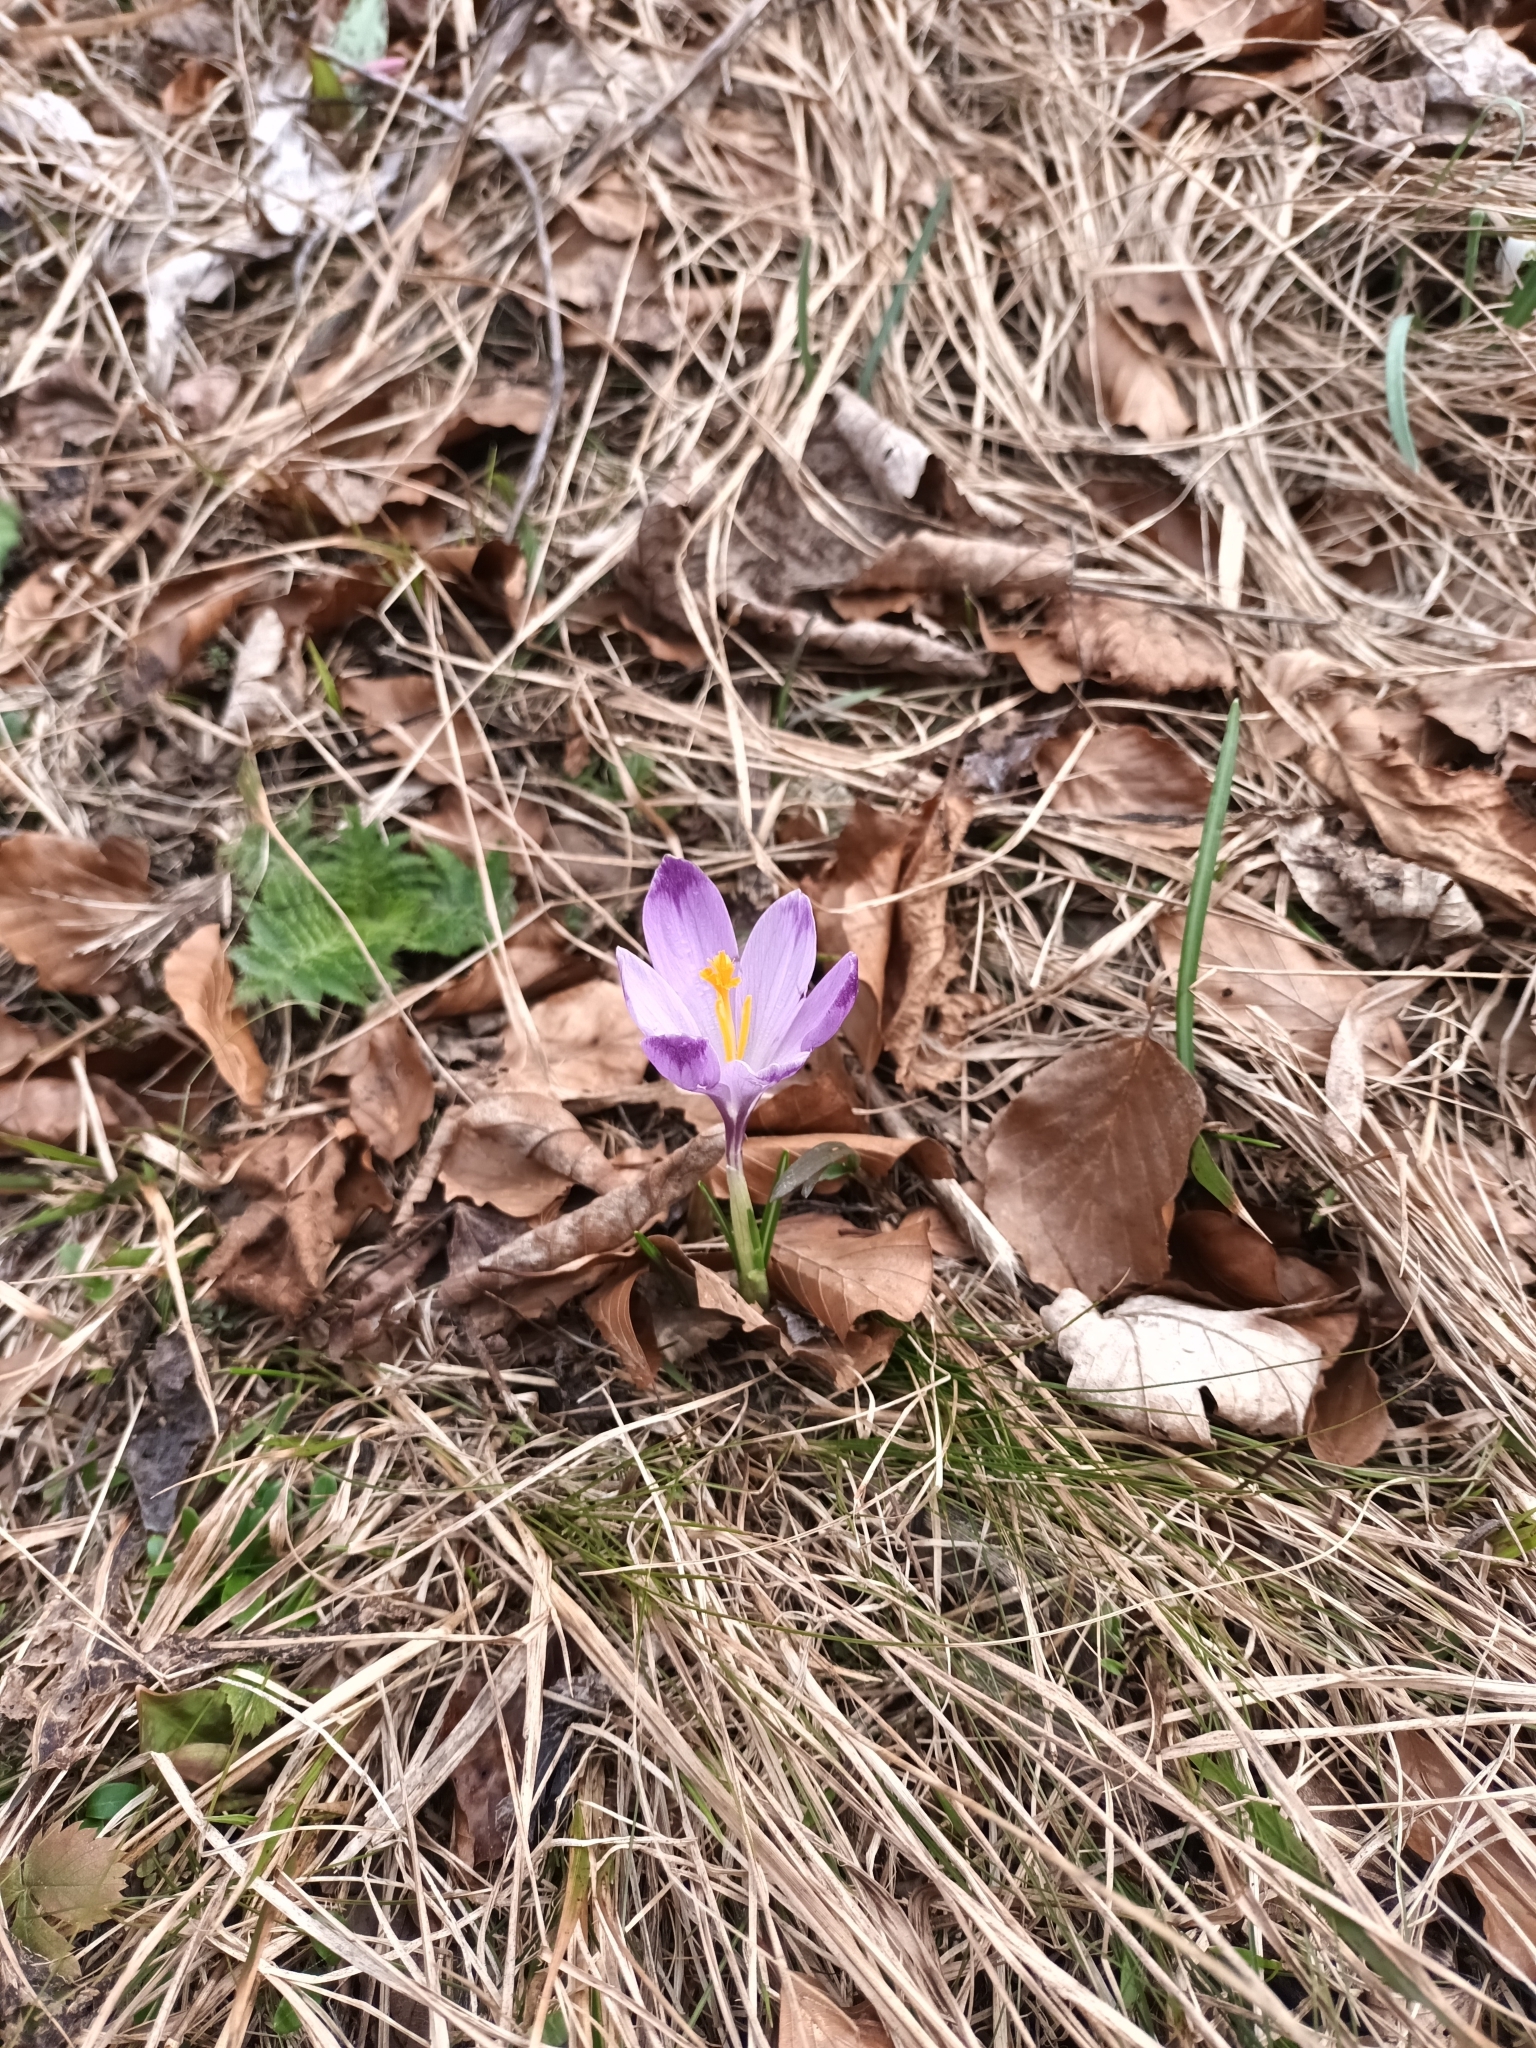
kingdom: Plantae
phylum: Tracheophyta
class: Liliopsida
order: Asparagales
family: Iridaceae
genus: Crocus
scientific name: Crocus heuffelianus
